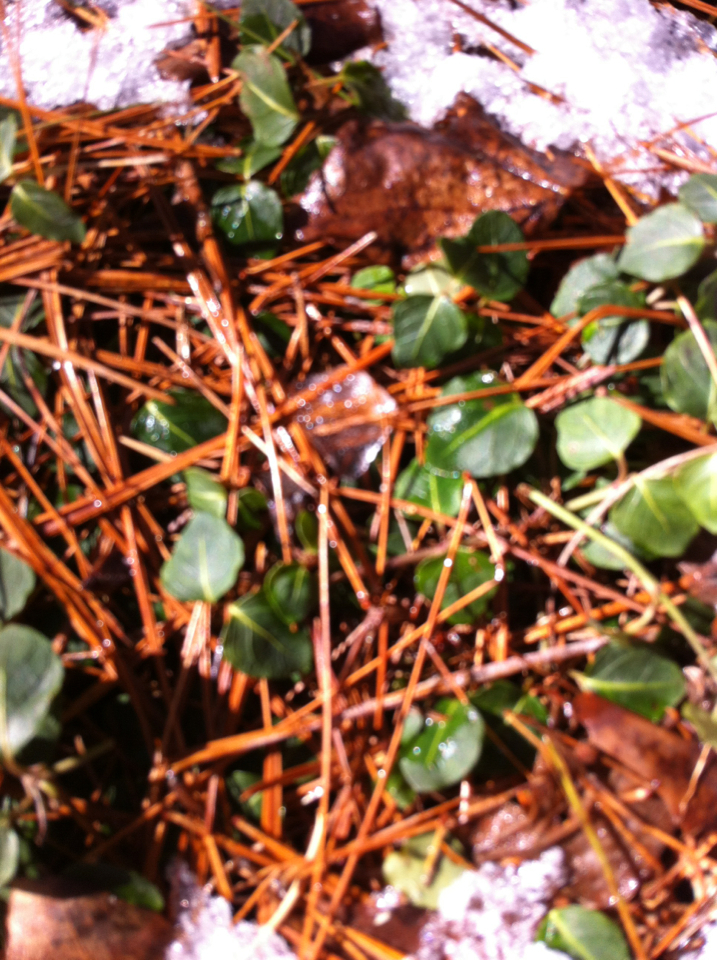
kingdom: Plantae
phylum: Tracheophyta
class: Magnoliopsida
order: Gentianales
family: Rubiaceae
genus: Mitchella
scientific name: Mitchella repens
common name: Partridge-berry
